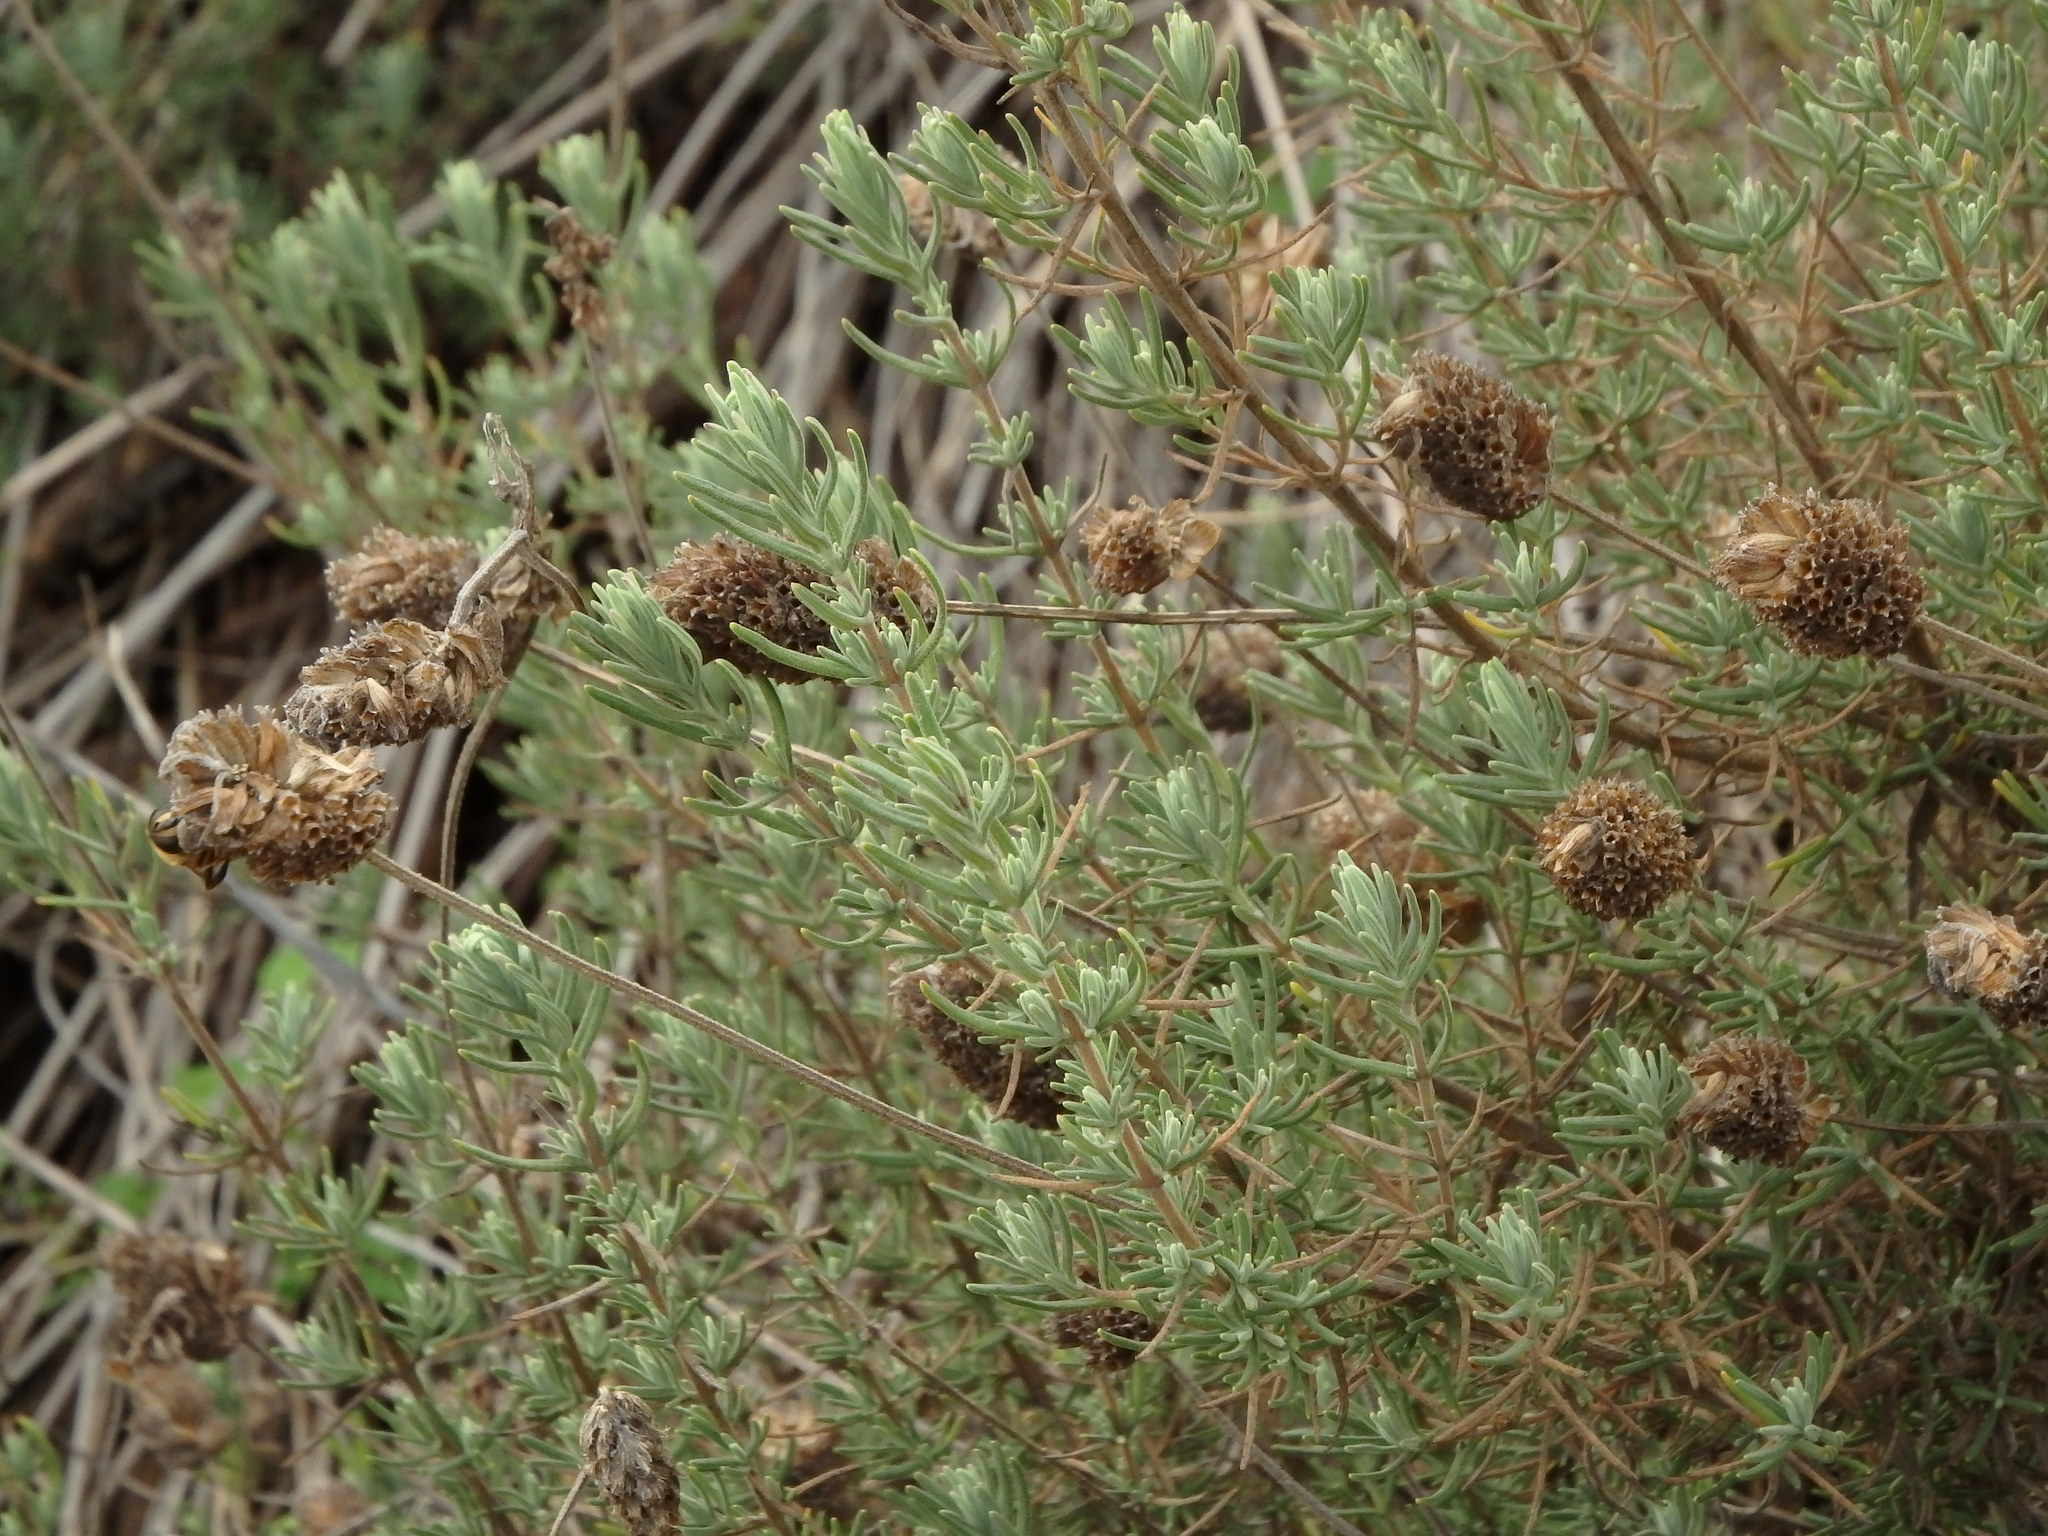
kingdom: Plantae
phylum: Tracheophyta
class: Magnoliopsida
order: Lamiales
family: Lamiaceae
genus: Lavandula
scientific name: Lavandula stoechas
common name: French lavender
